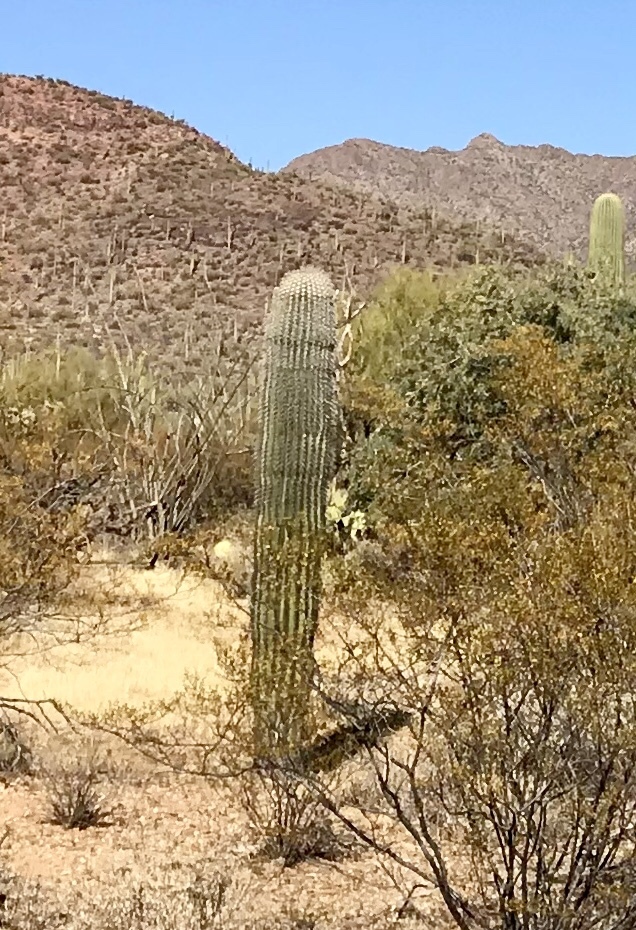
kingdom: Plantae
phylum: Tracheophyta
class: Magnoliopsida
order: Caryophyllales
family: Cactaceae
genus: Carnegiea
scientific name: Carnegiea gigantea
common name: Saguaro
